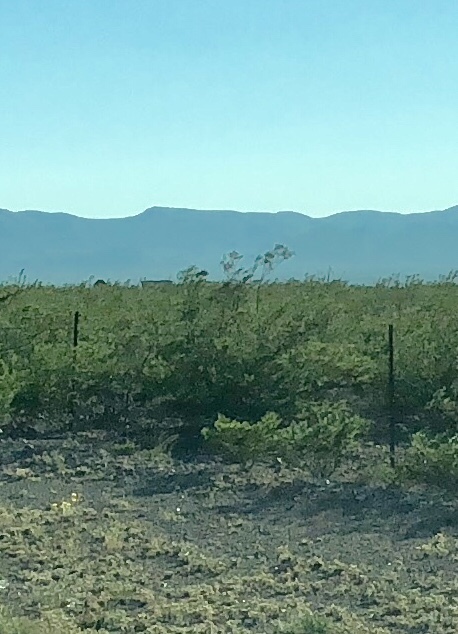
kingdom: Plantae
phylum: Tracheophyta
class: Magnoliopsida
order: Zygophyllales
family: Zygophyllaceae
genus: Larrea
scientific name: Larrea tridentata
